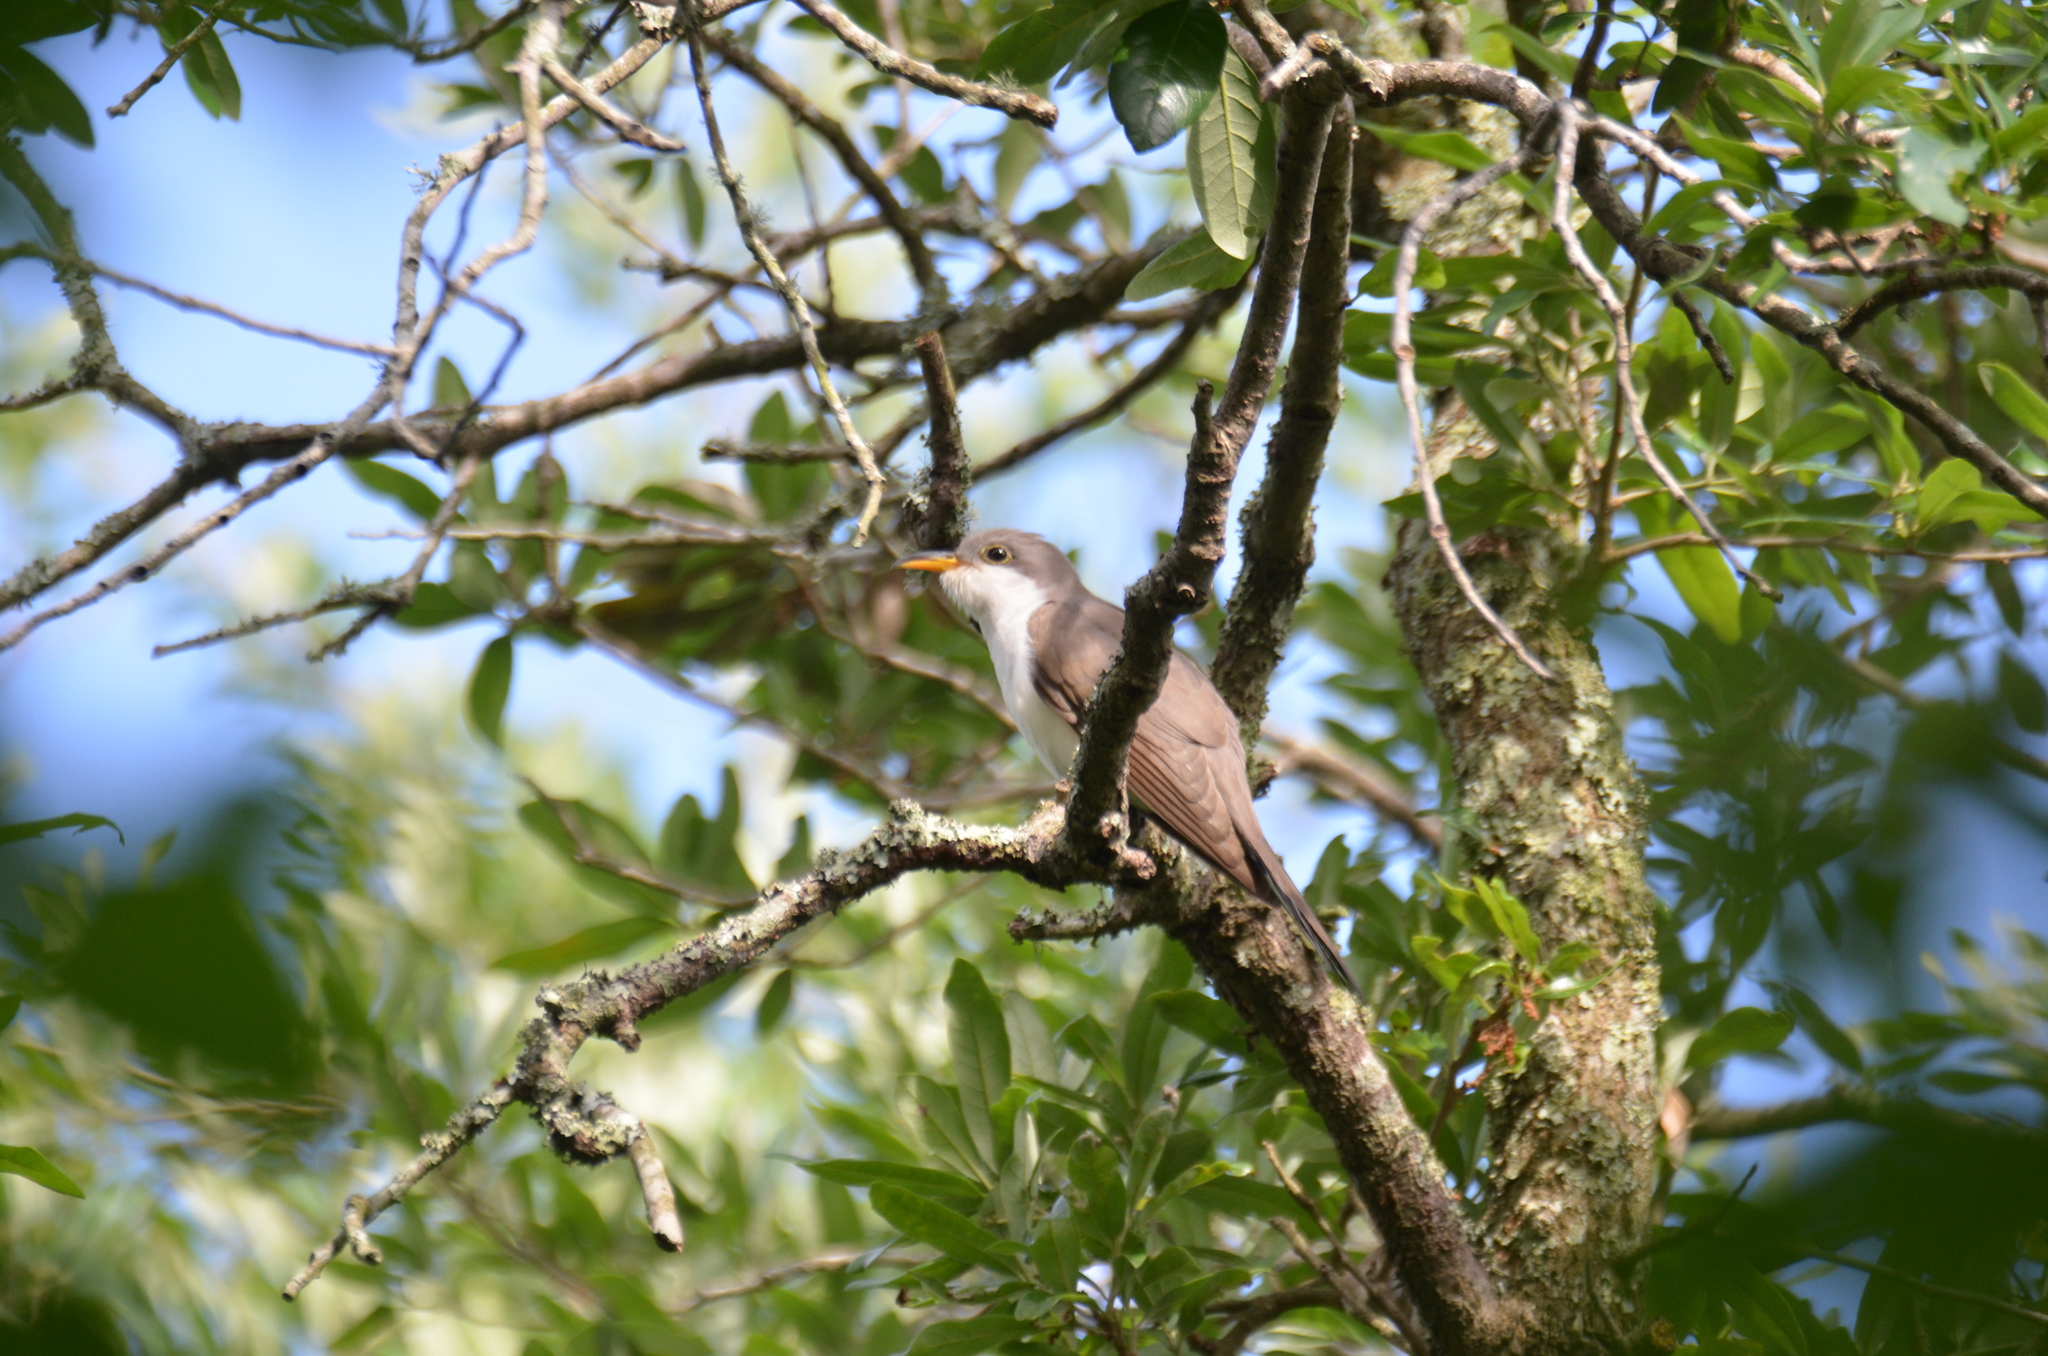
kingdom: Animalia
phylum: Chordata
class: Aves
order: Cuculiformes
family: Cuculidae
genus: Coccyzus
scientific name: Coccyzus americanus
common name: Yellow-billed cuckoo
